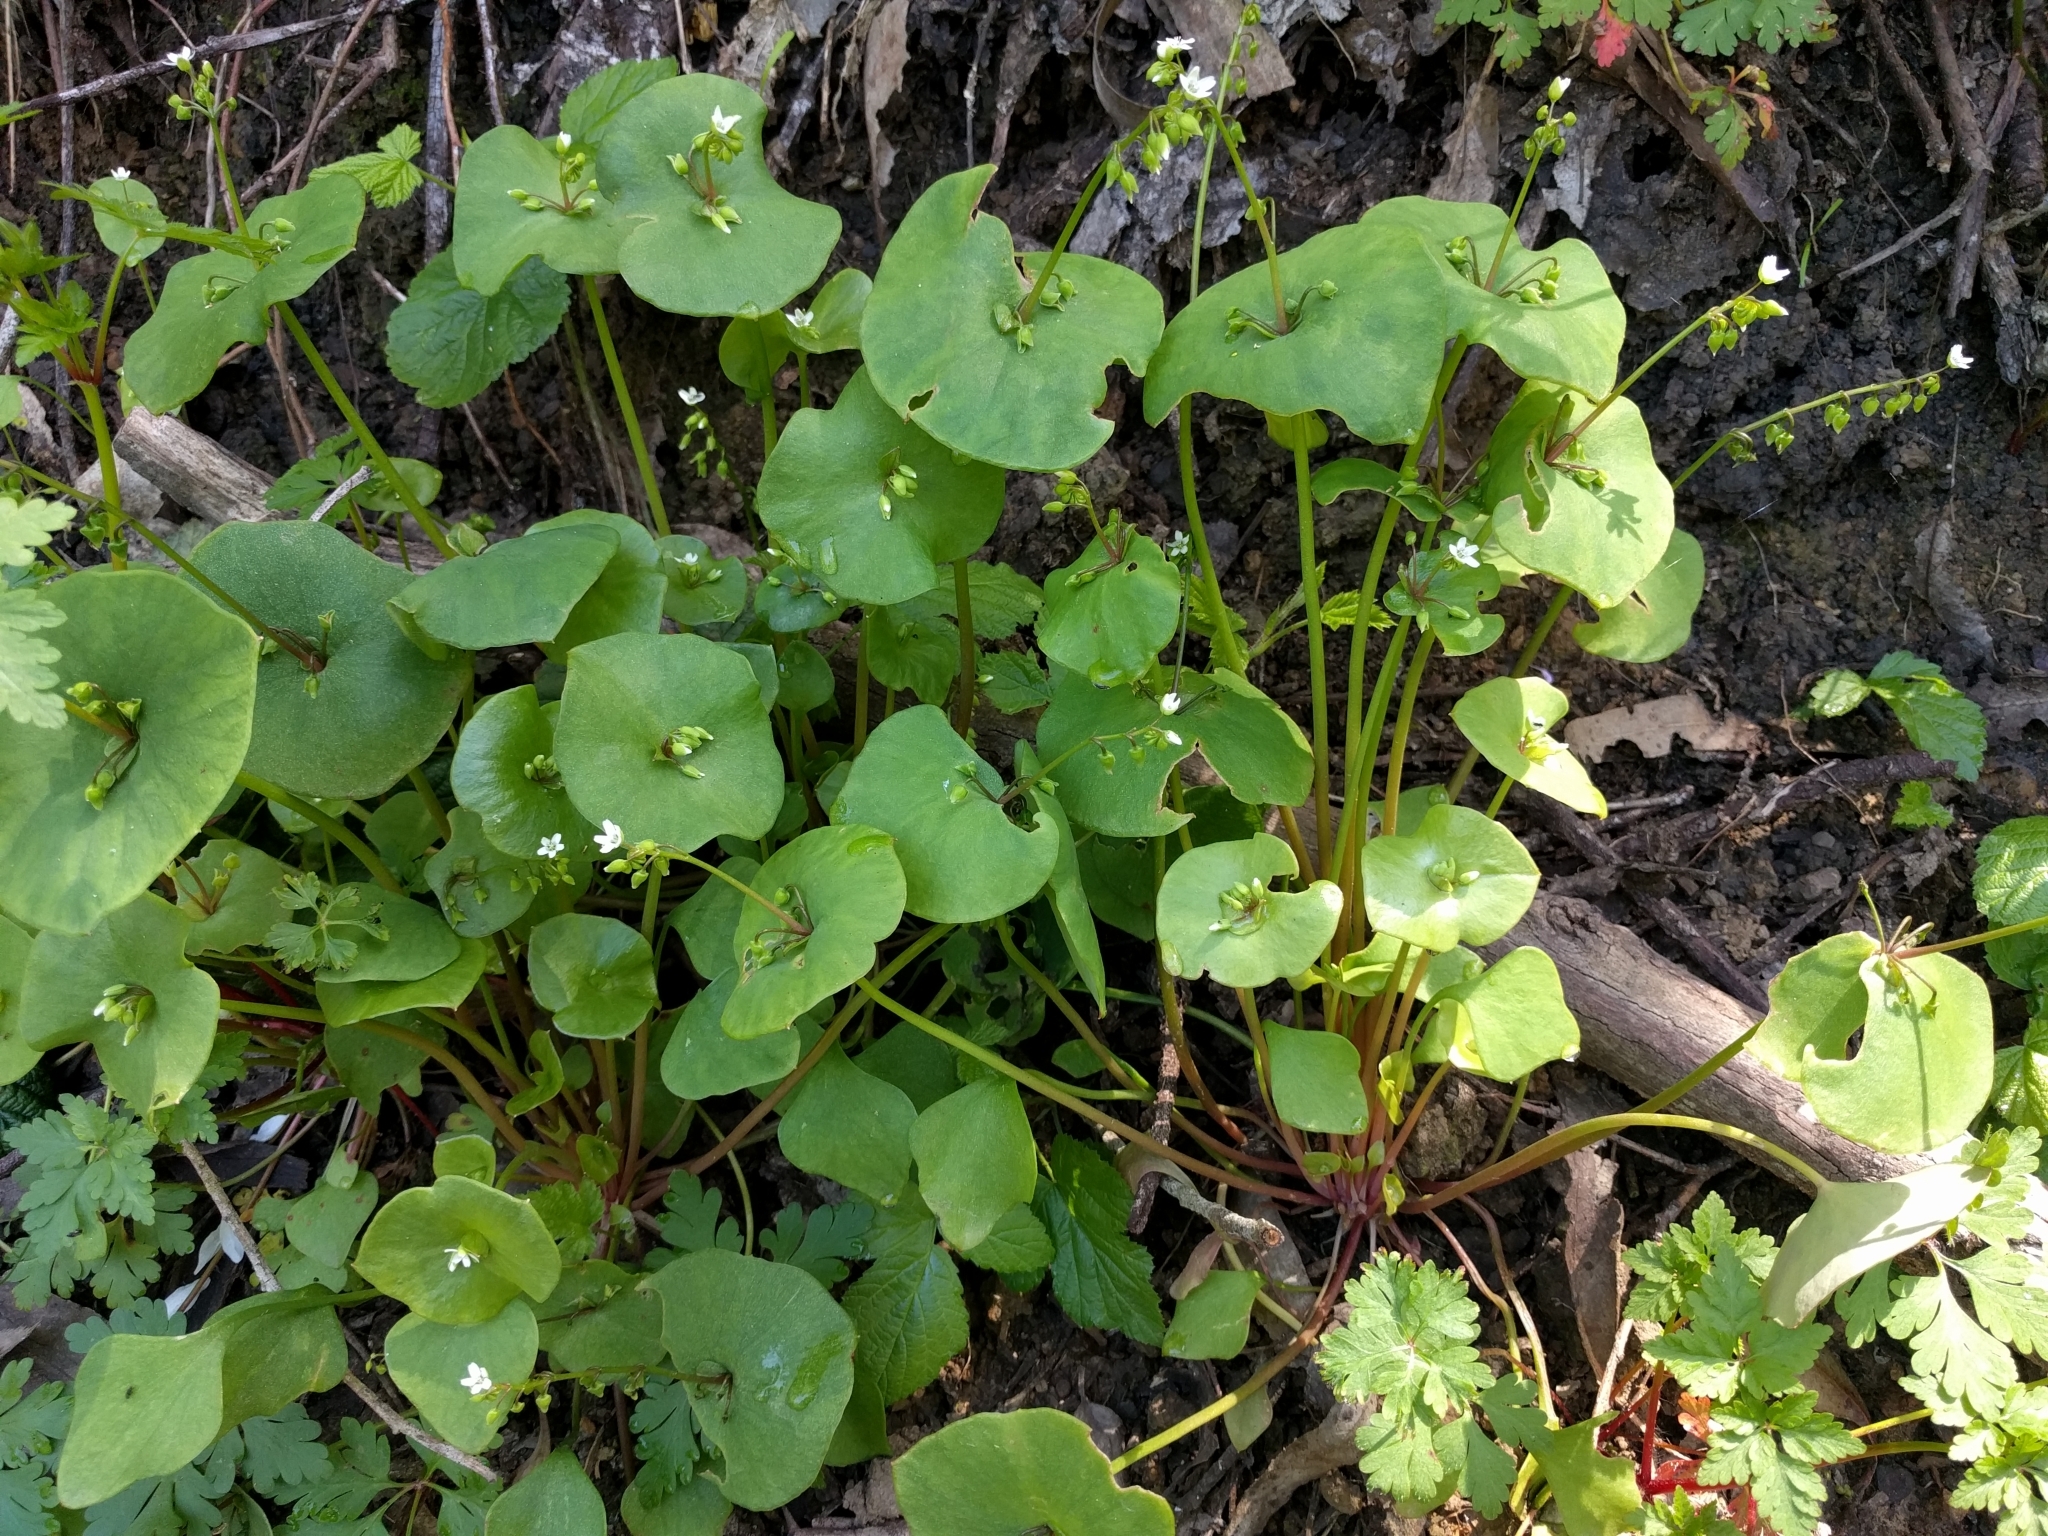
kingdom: Plantae
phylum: Tracheophyta
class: Magnoliopsida
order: Caryophyllales
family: Montiaceae
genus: Claytonia
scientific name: Claytonia perfoliata
